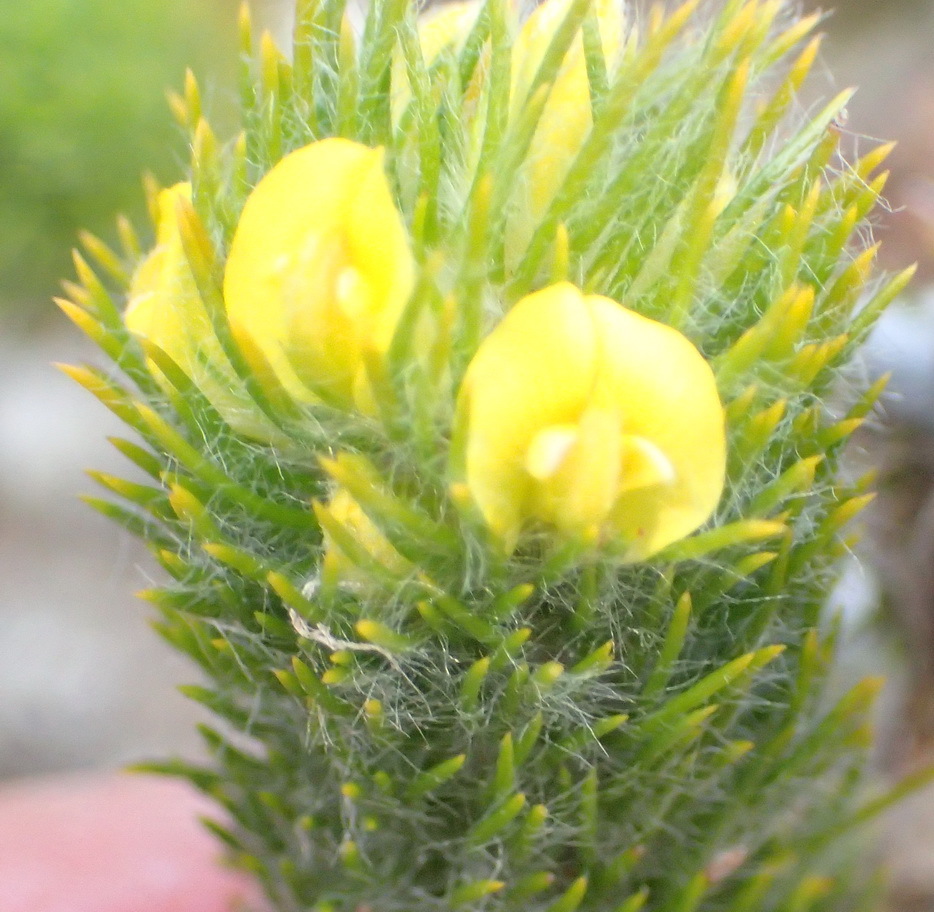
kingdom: Plantae
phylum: Tracheophyta
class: Magnoliopsida
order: Fabales
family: Fabaceae
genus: Aspalathus
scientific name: Aspalathus alopecurus
